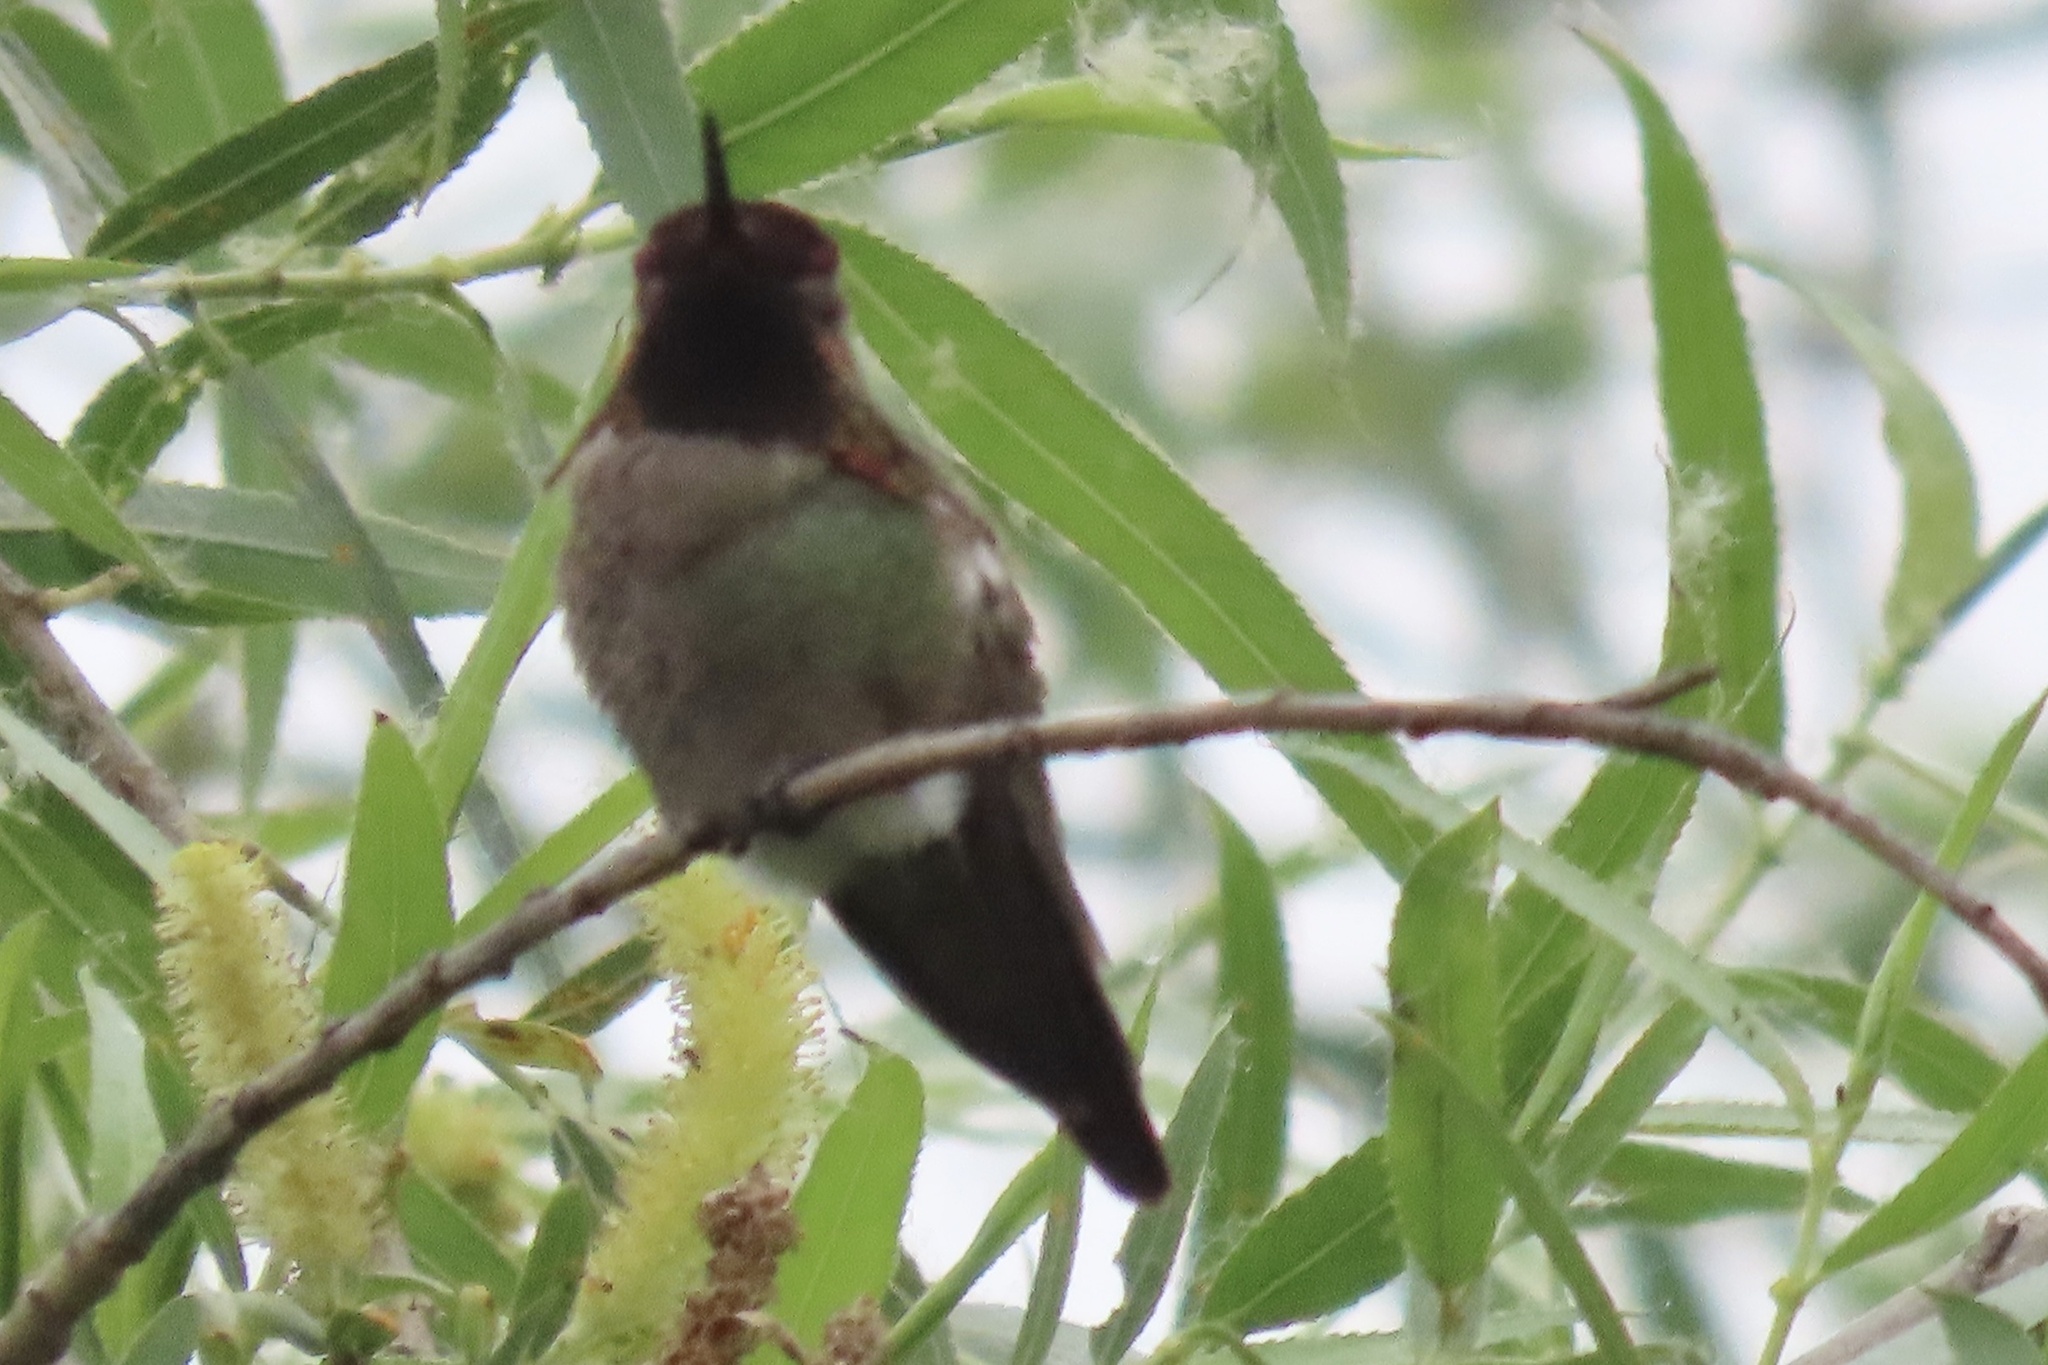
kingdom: Animalia
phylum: Chordata
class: Aves
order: Apodiformes
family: Trochilidae
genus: Calypte
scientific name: Calypte anna
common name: Anna's hummingbird
